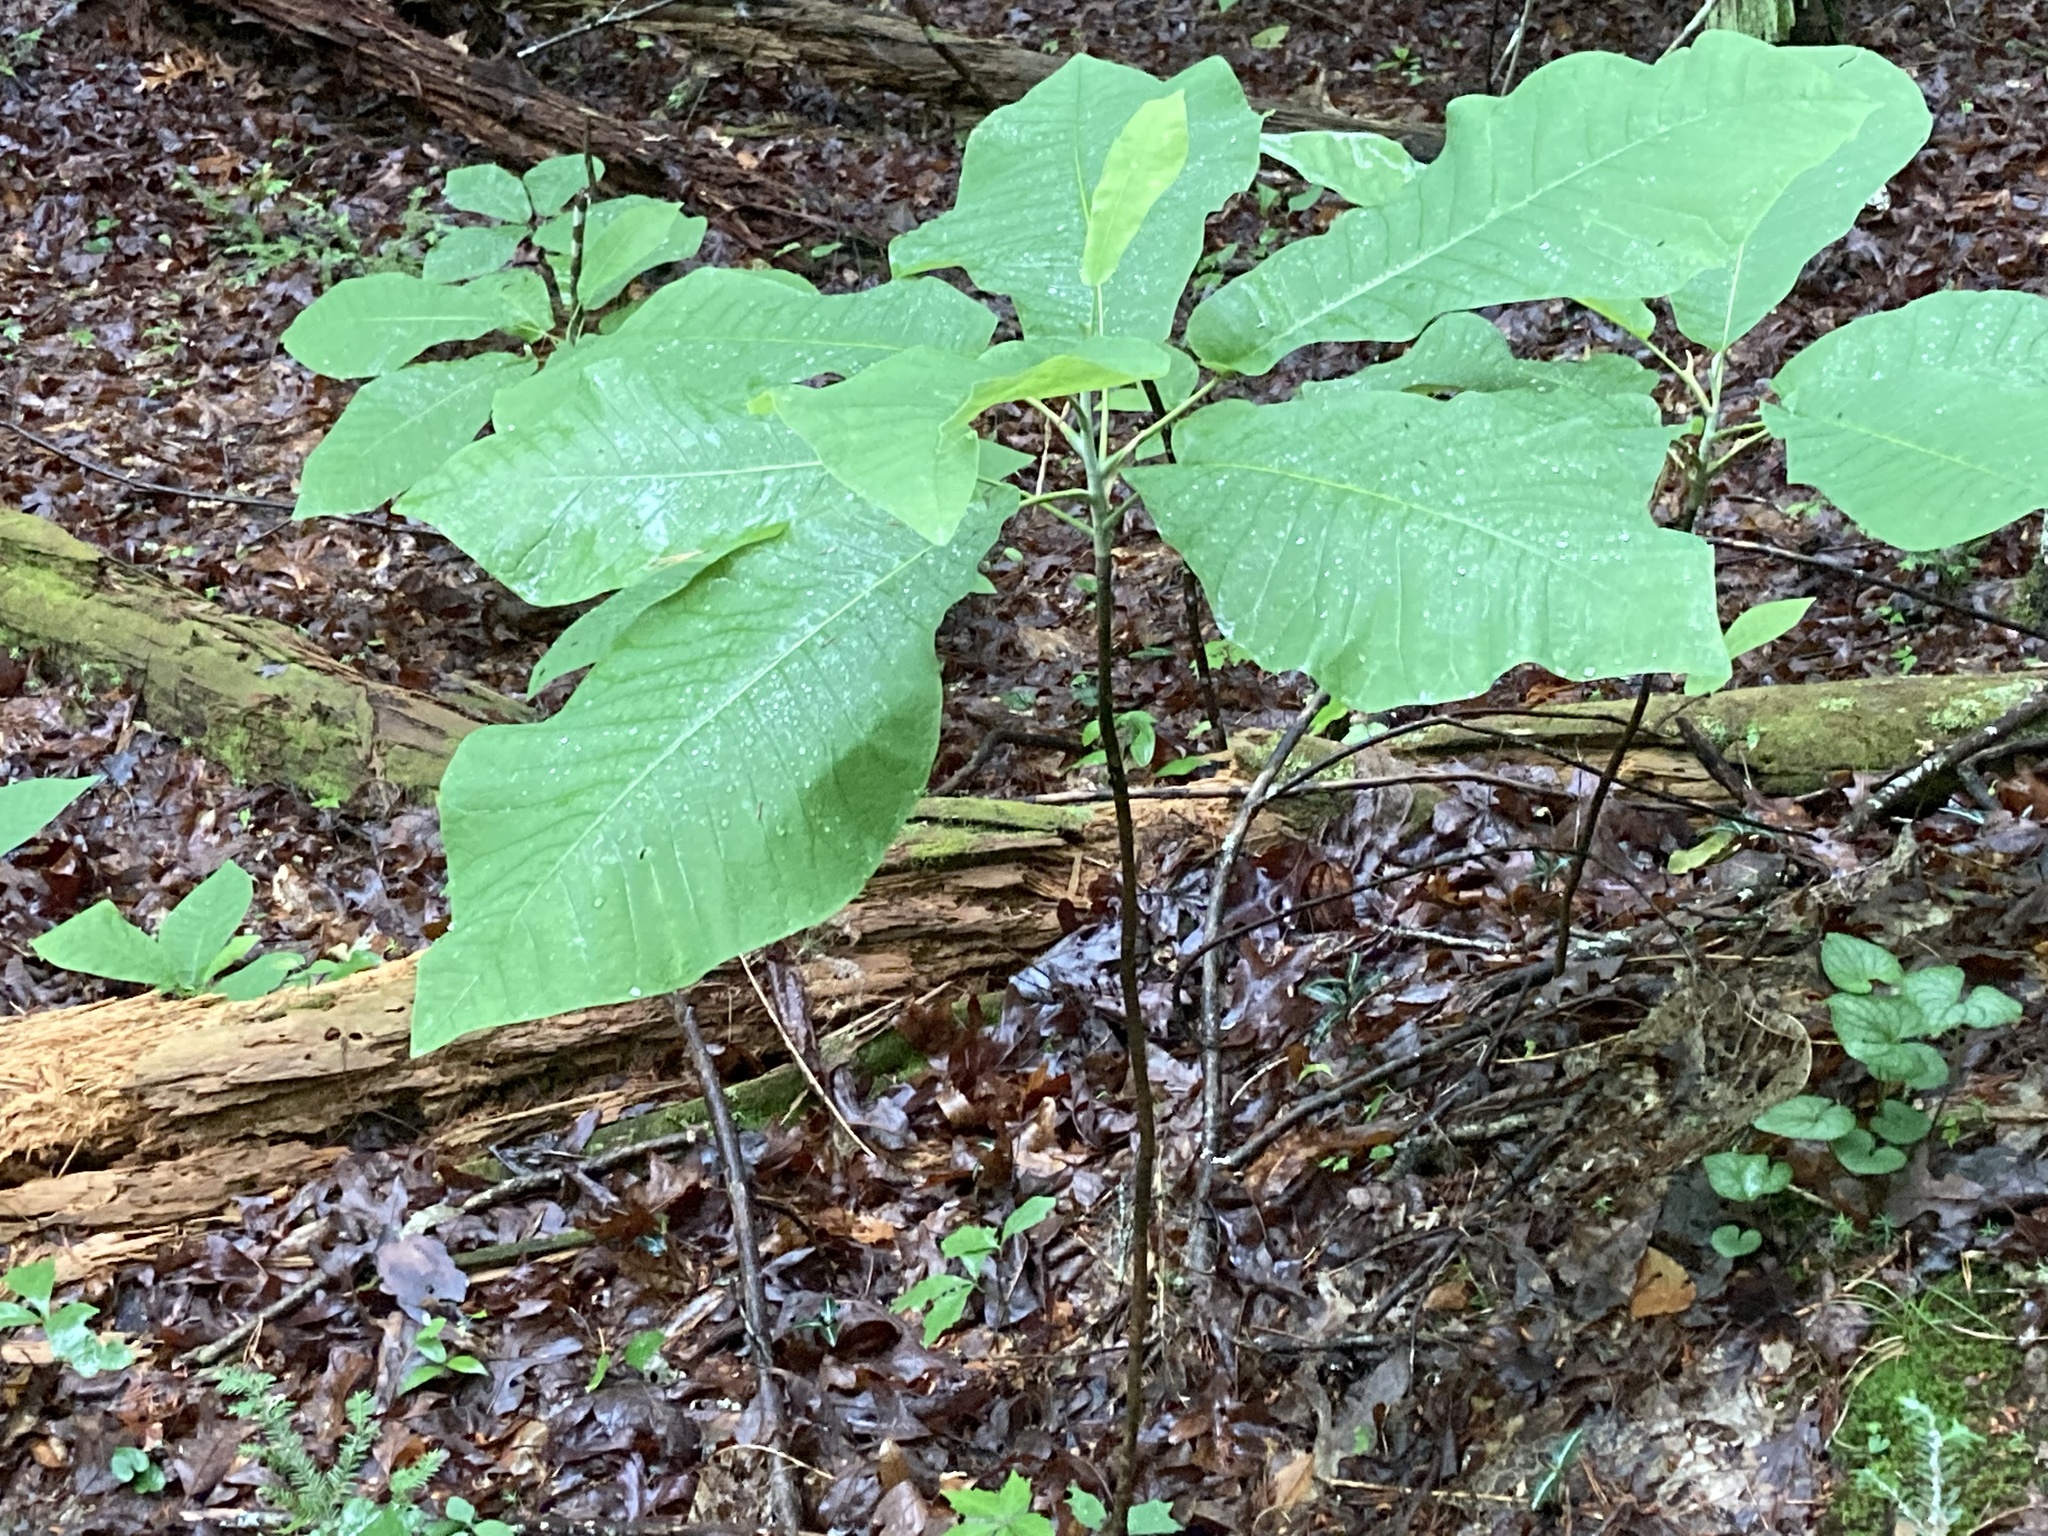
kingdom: Plantae
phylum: Tracheophyta
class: Magnoliopsida
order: Magnoliales
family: Magnoliaceae
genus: Magnolia
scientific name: Magnolia macrophylla
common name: Big-leaf magnolia
